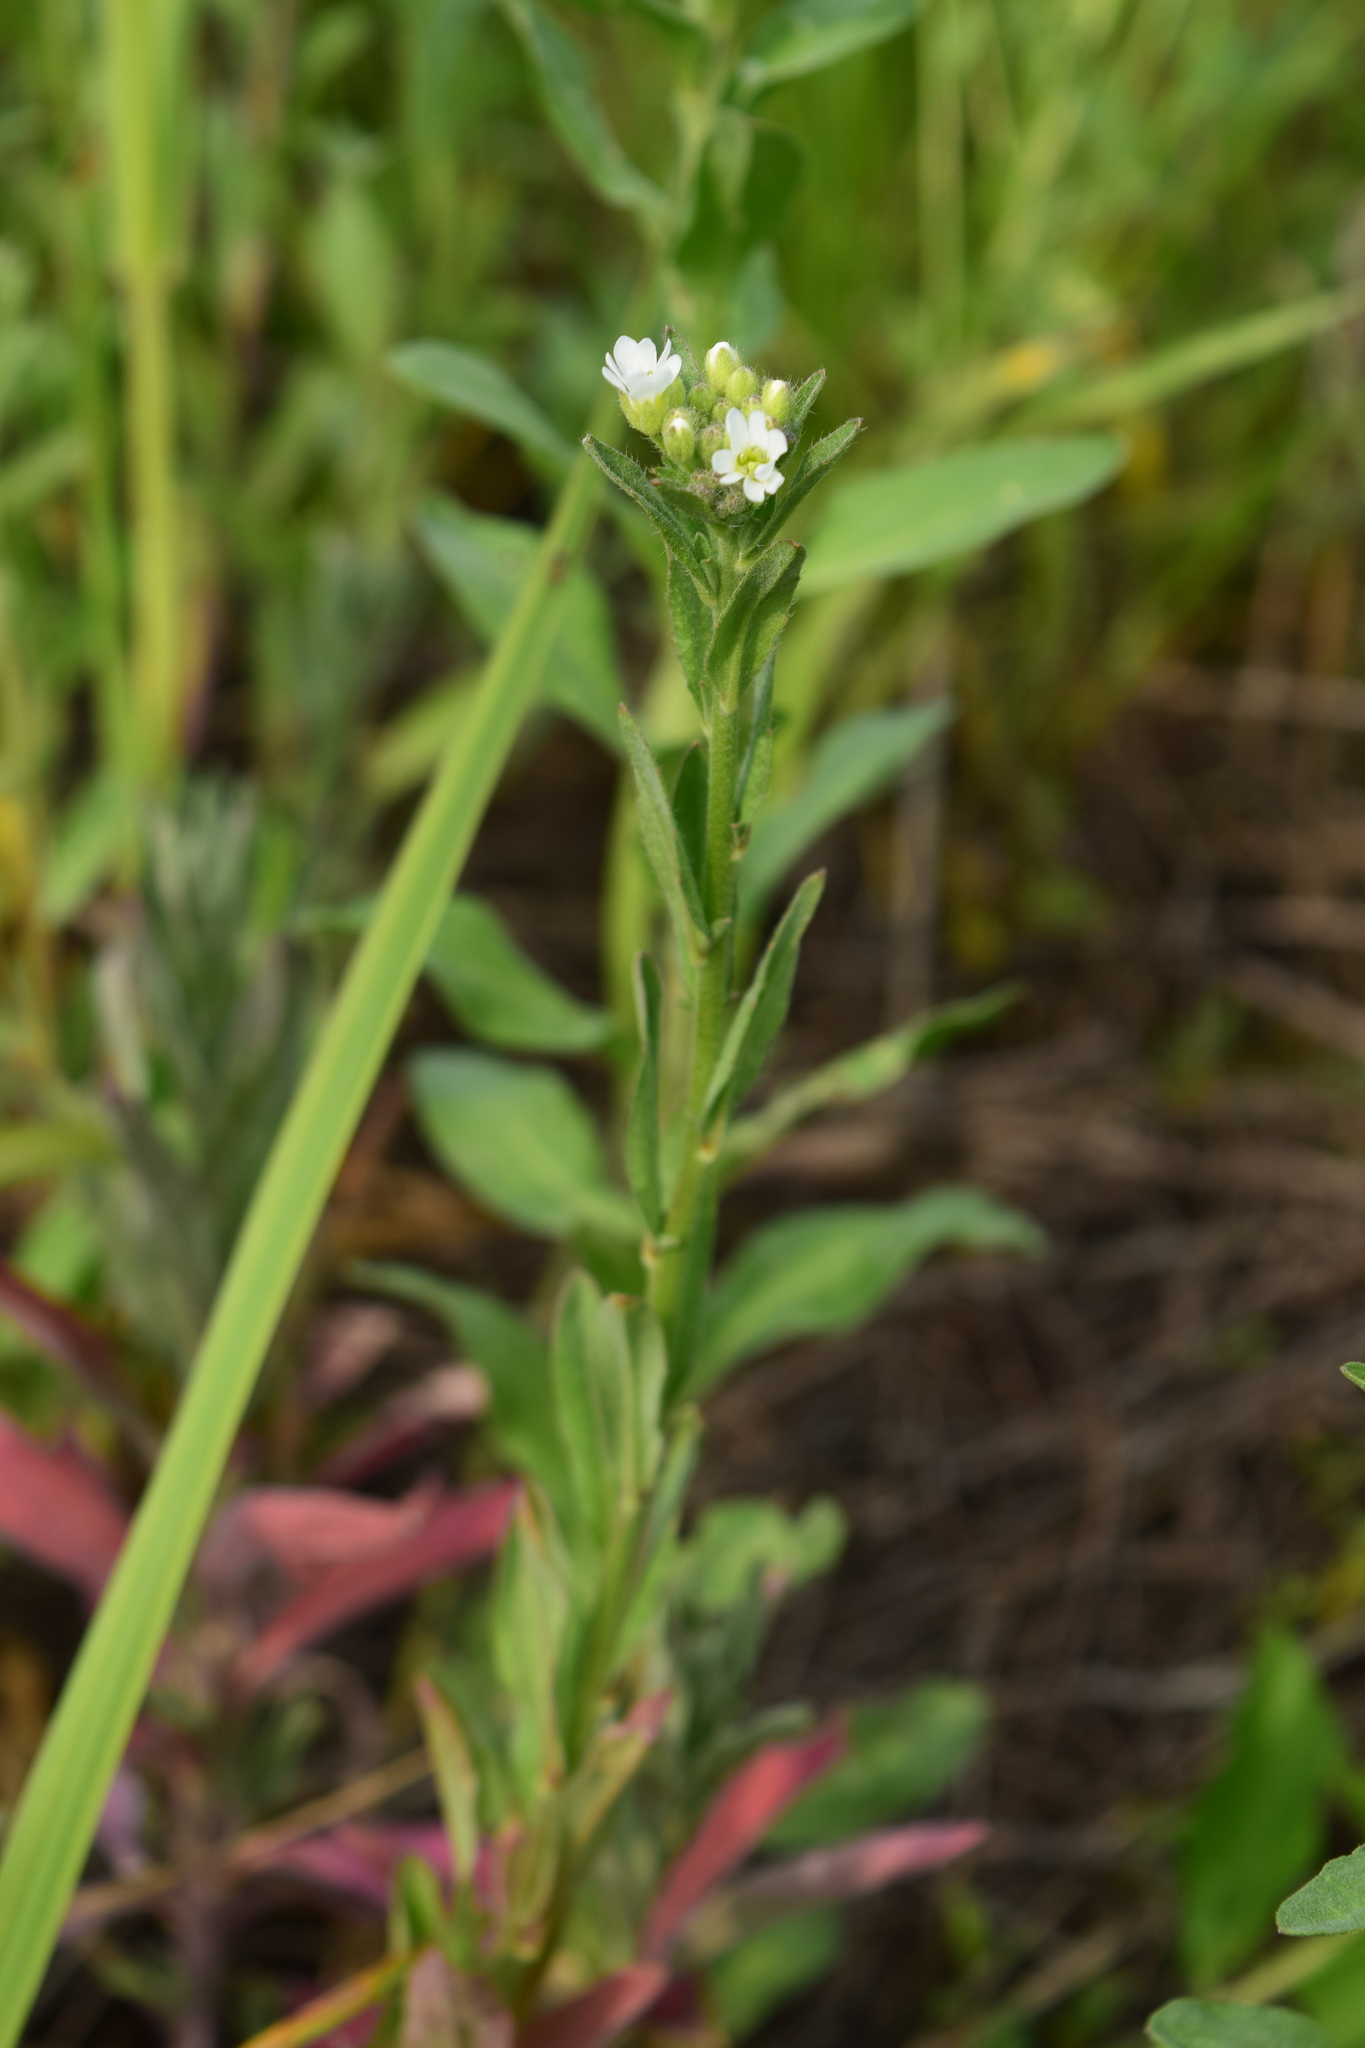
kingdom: Plantae
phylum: Tracheophyta
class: Magnoliopsida
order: Brassicales
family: Brassicaceae
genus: Berteroa
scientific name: Berteroa incana
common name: Hoary alison
